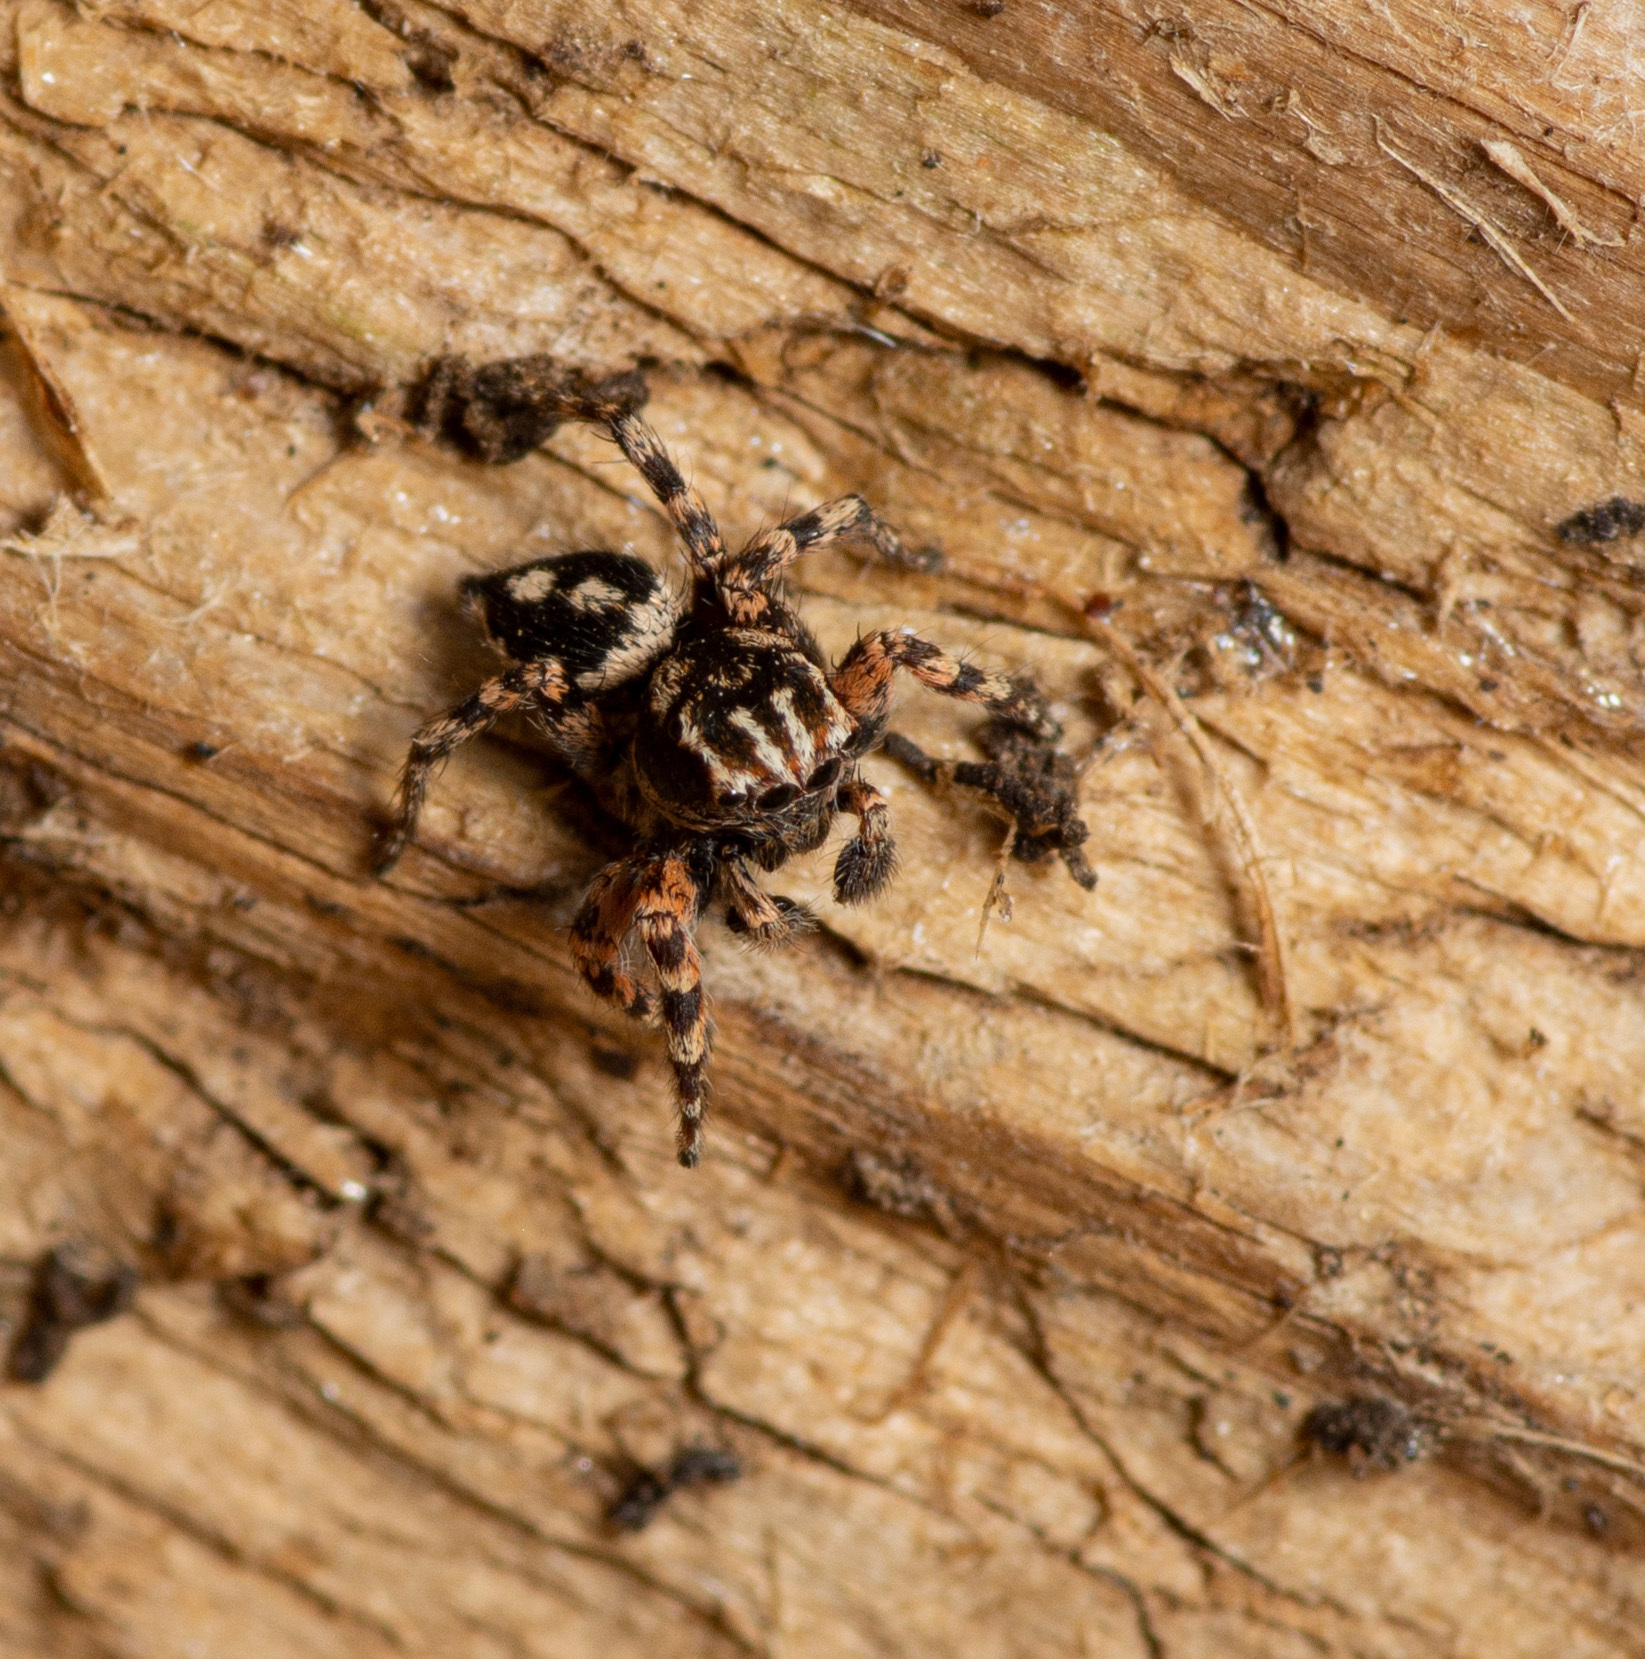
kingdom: Animalia
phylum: Arthropoda
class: Arachnida
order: Araneae
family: Salticidae
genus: Habronattus
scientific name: Habronattus fallax
